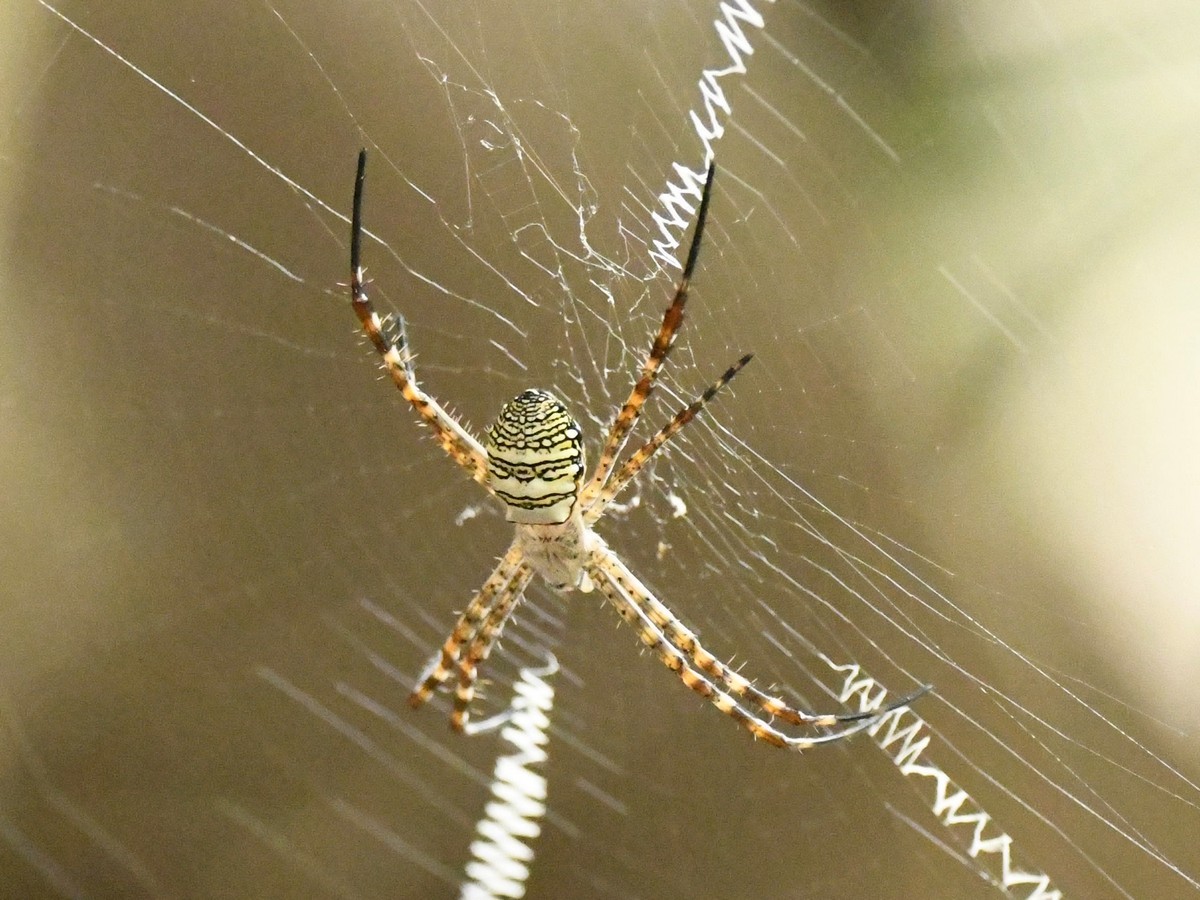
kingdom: Animalia
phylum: Arthropoda
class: Arachnida
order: Araneae
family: Araneidae
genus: Argiope
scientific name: Argiope aemula
